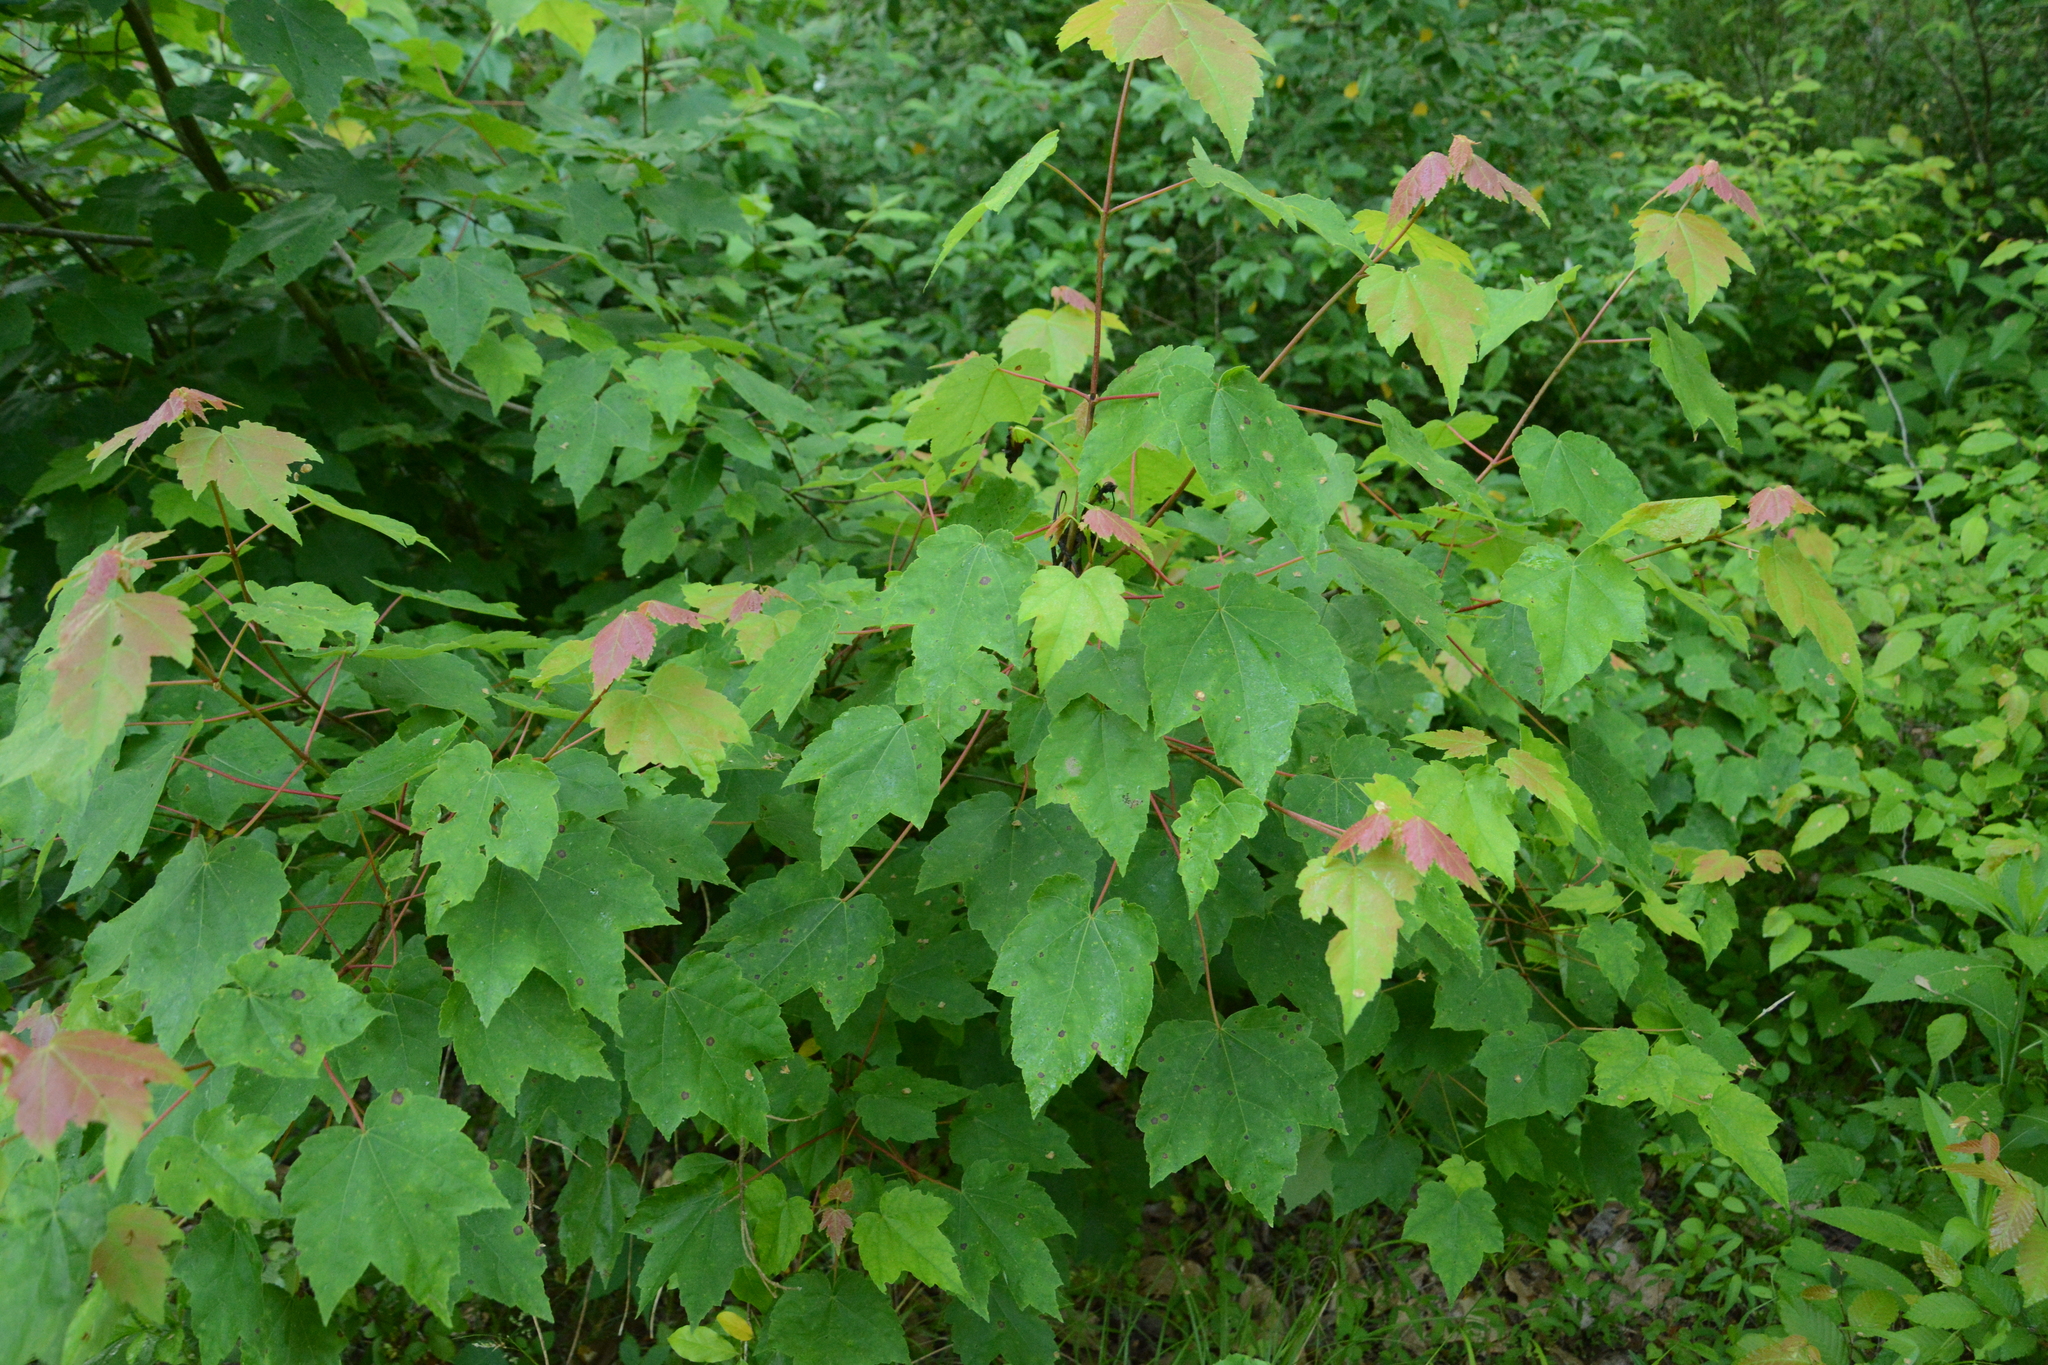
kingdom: Plantae
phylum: Tracheophyta
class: Magnoliopsida
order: Sapindales
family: Sapindaceae
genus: Acer
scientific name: Acer rubrum
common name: Red maple
